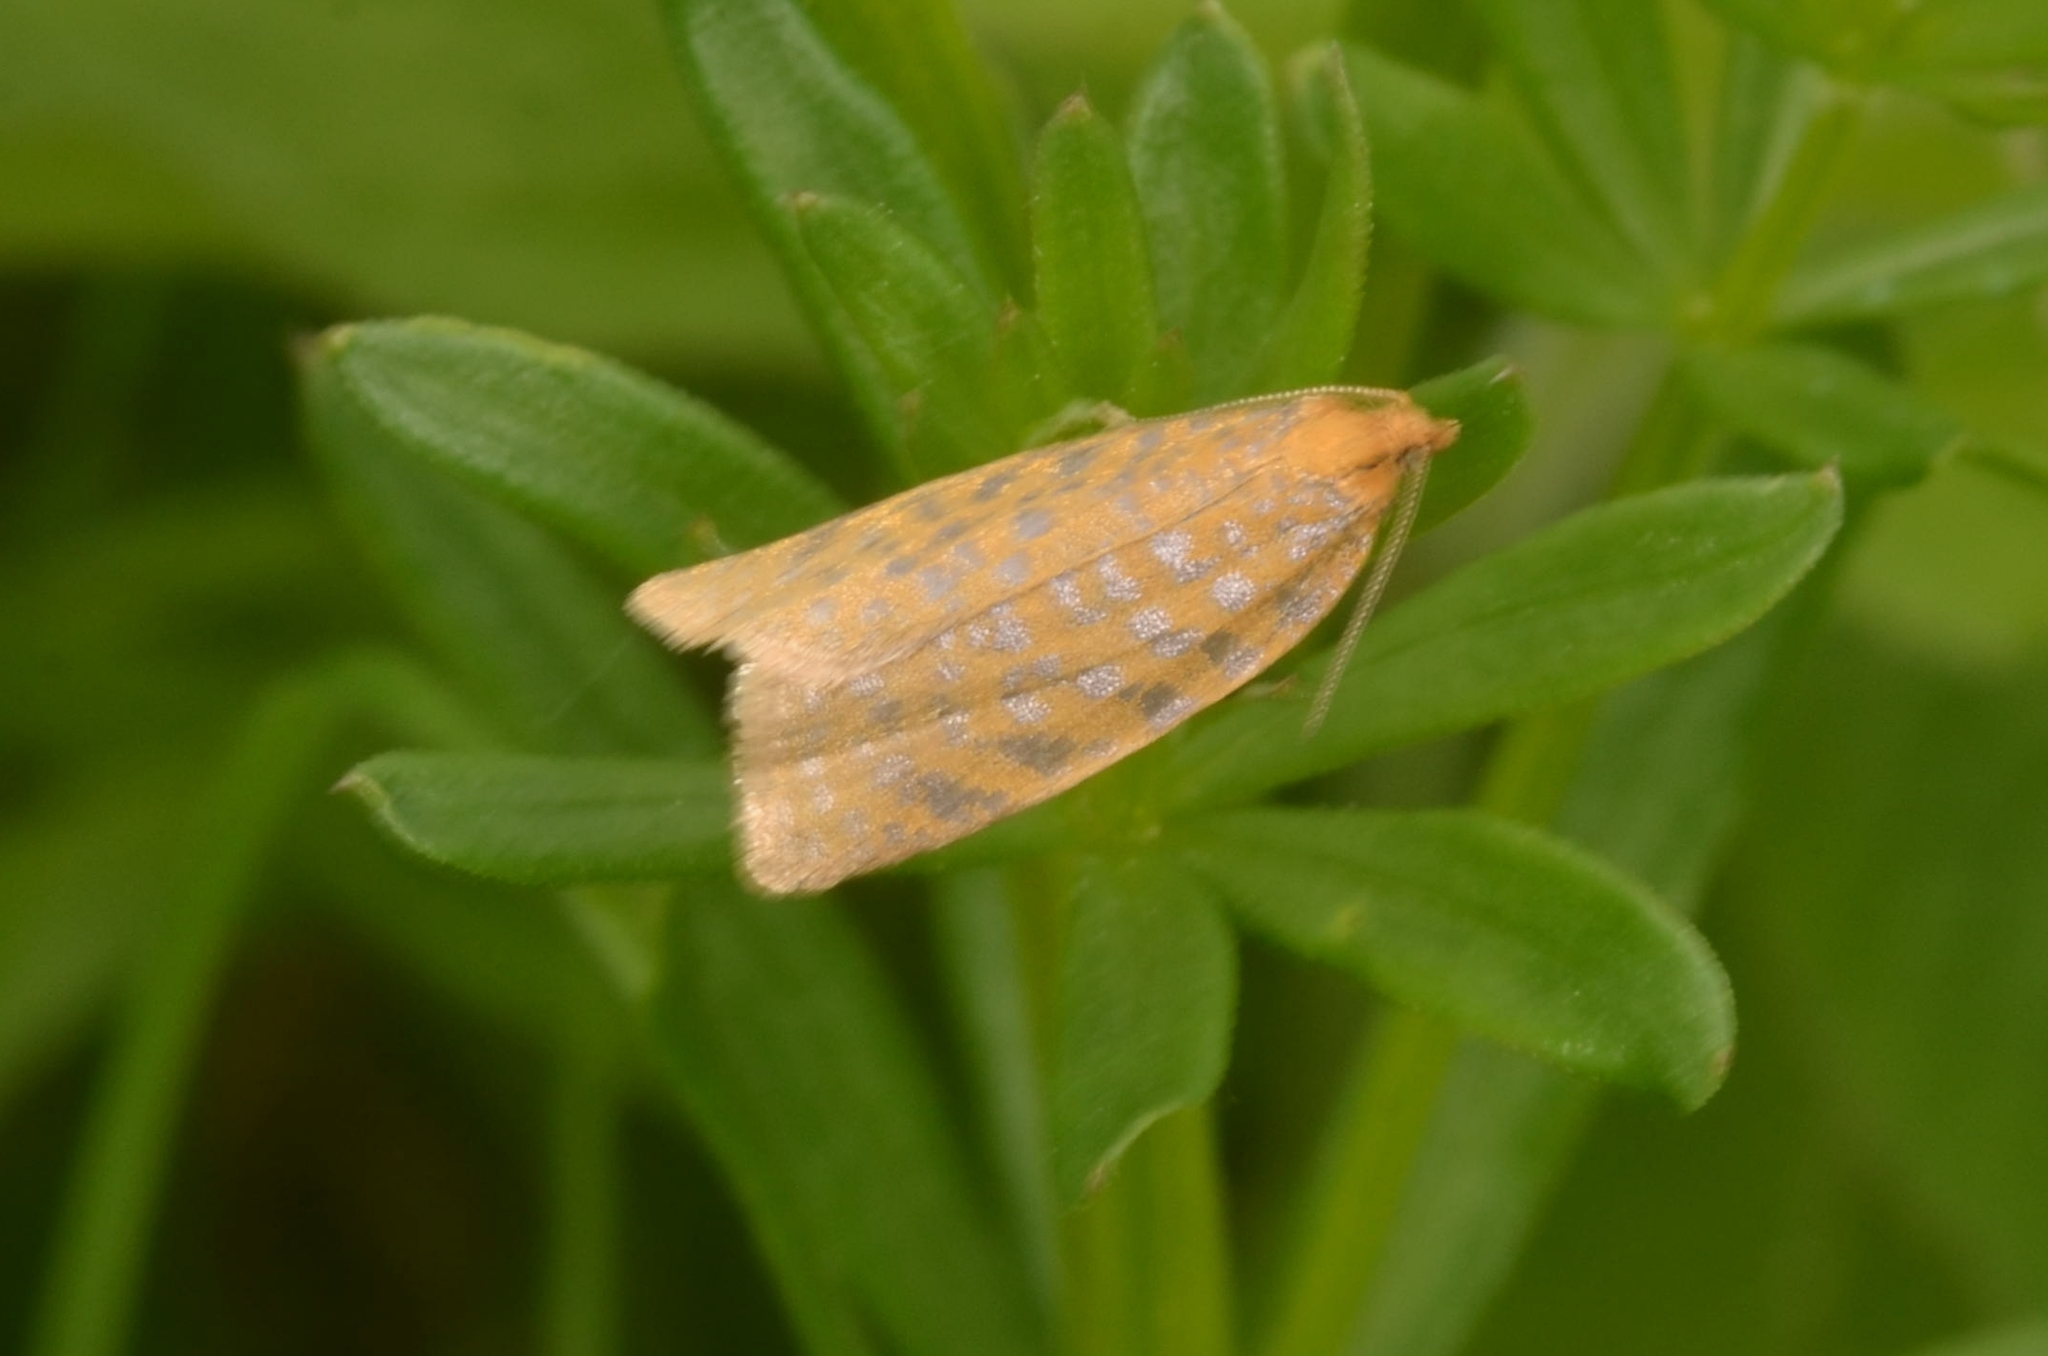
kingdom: Animalia
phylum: Arthropoda
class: Insecta
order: Lepidoptera
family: Tortricidae
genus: Clepsis
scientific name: Clepsis rogana
